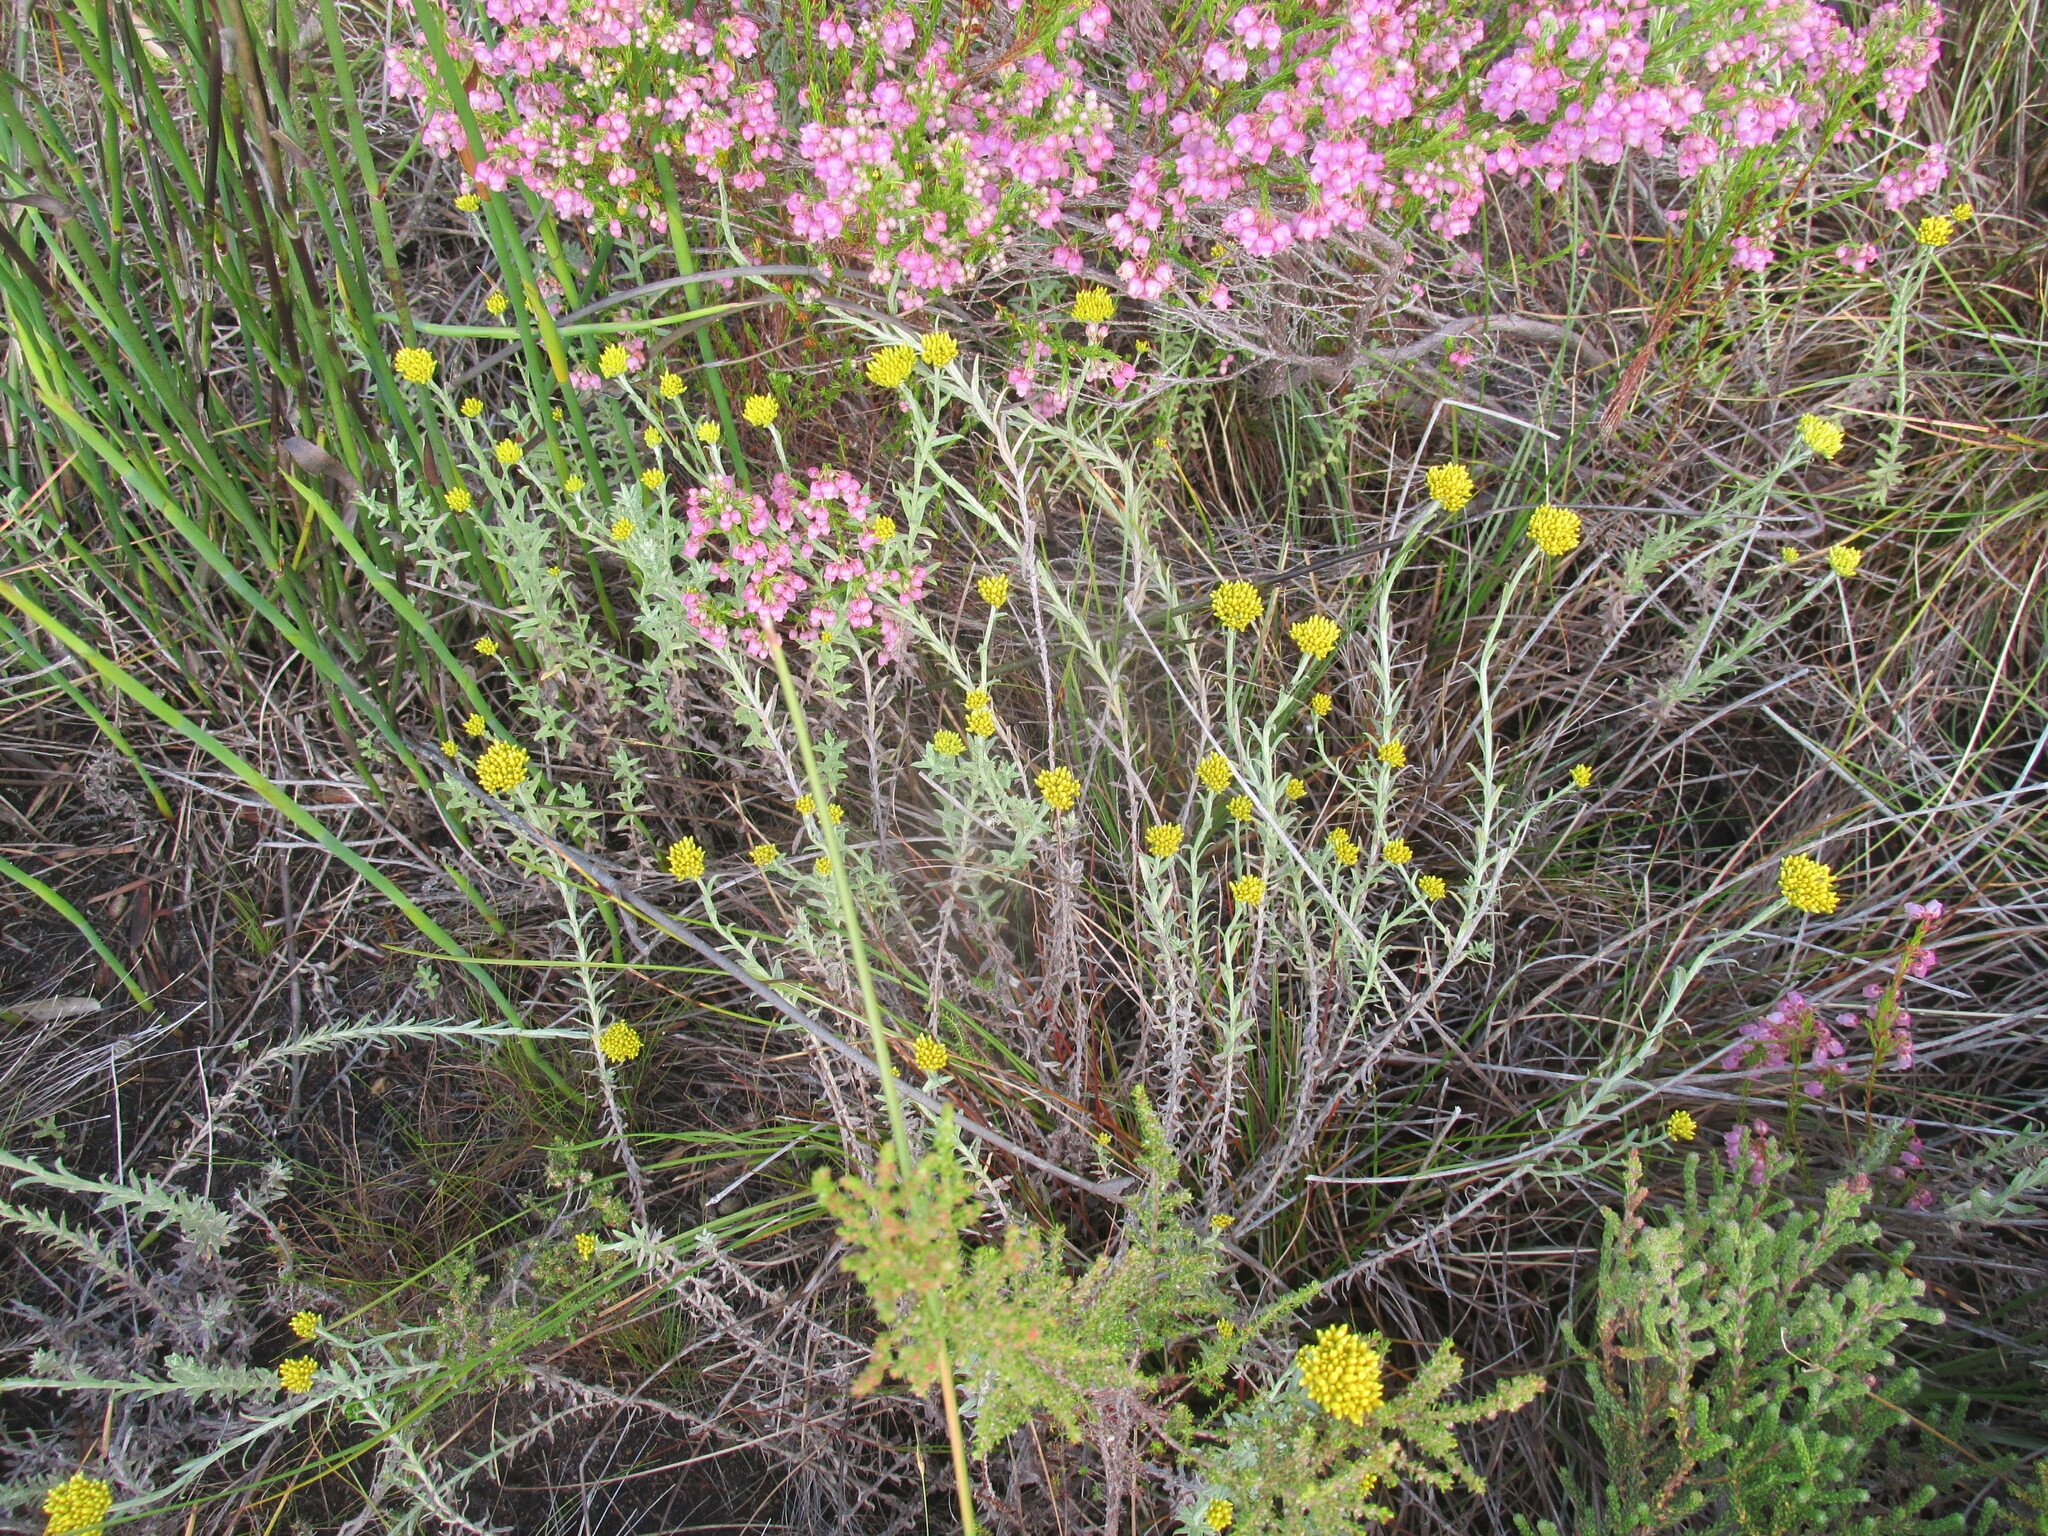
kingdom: Plantae
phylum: Tracheophyta
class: Magnoliopsida
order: Asterales
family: Asteraceae
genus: Helichrysum
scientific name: Helichrysum cymosum
